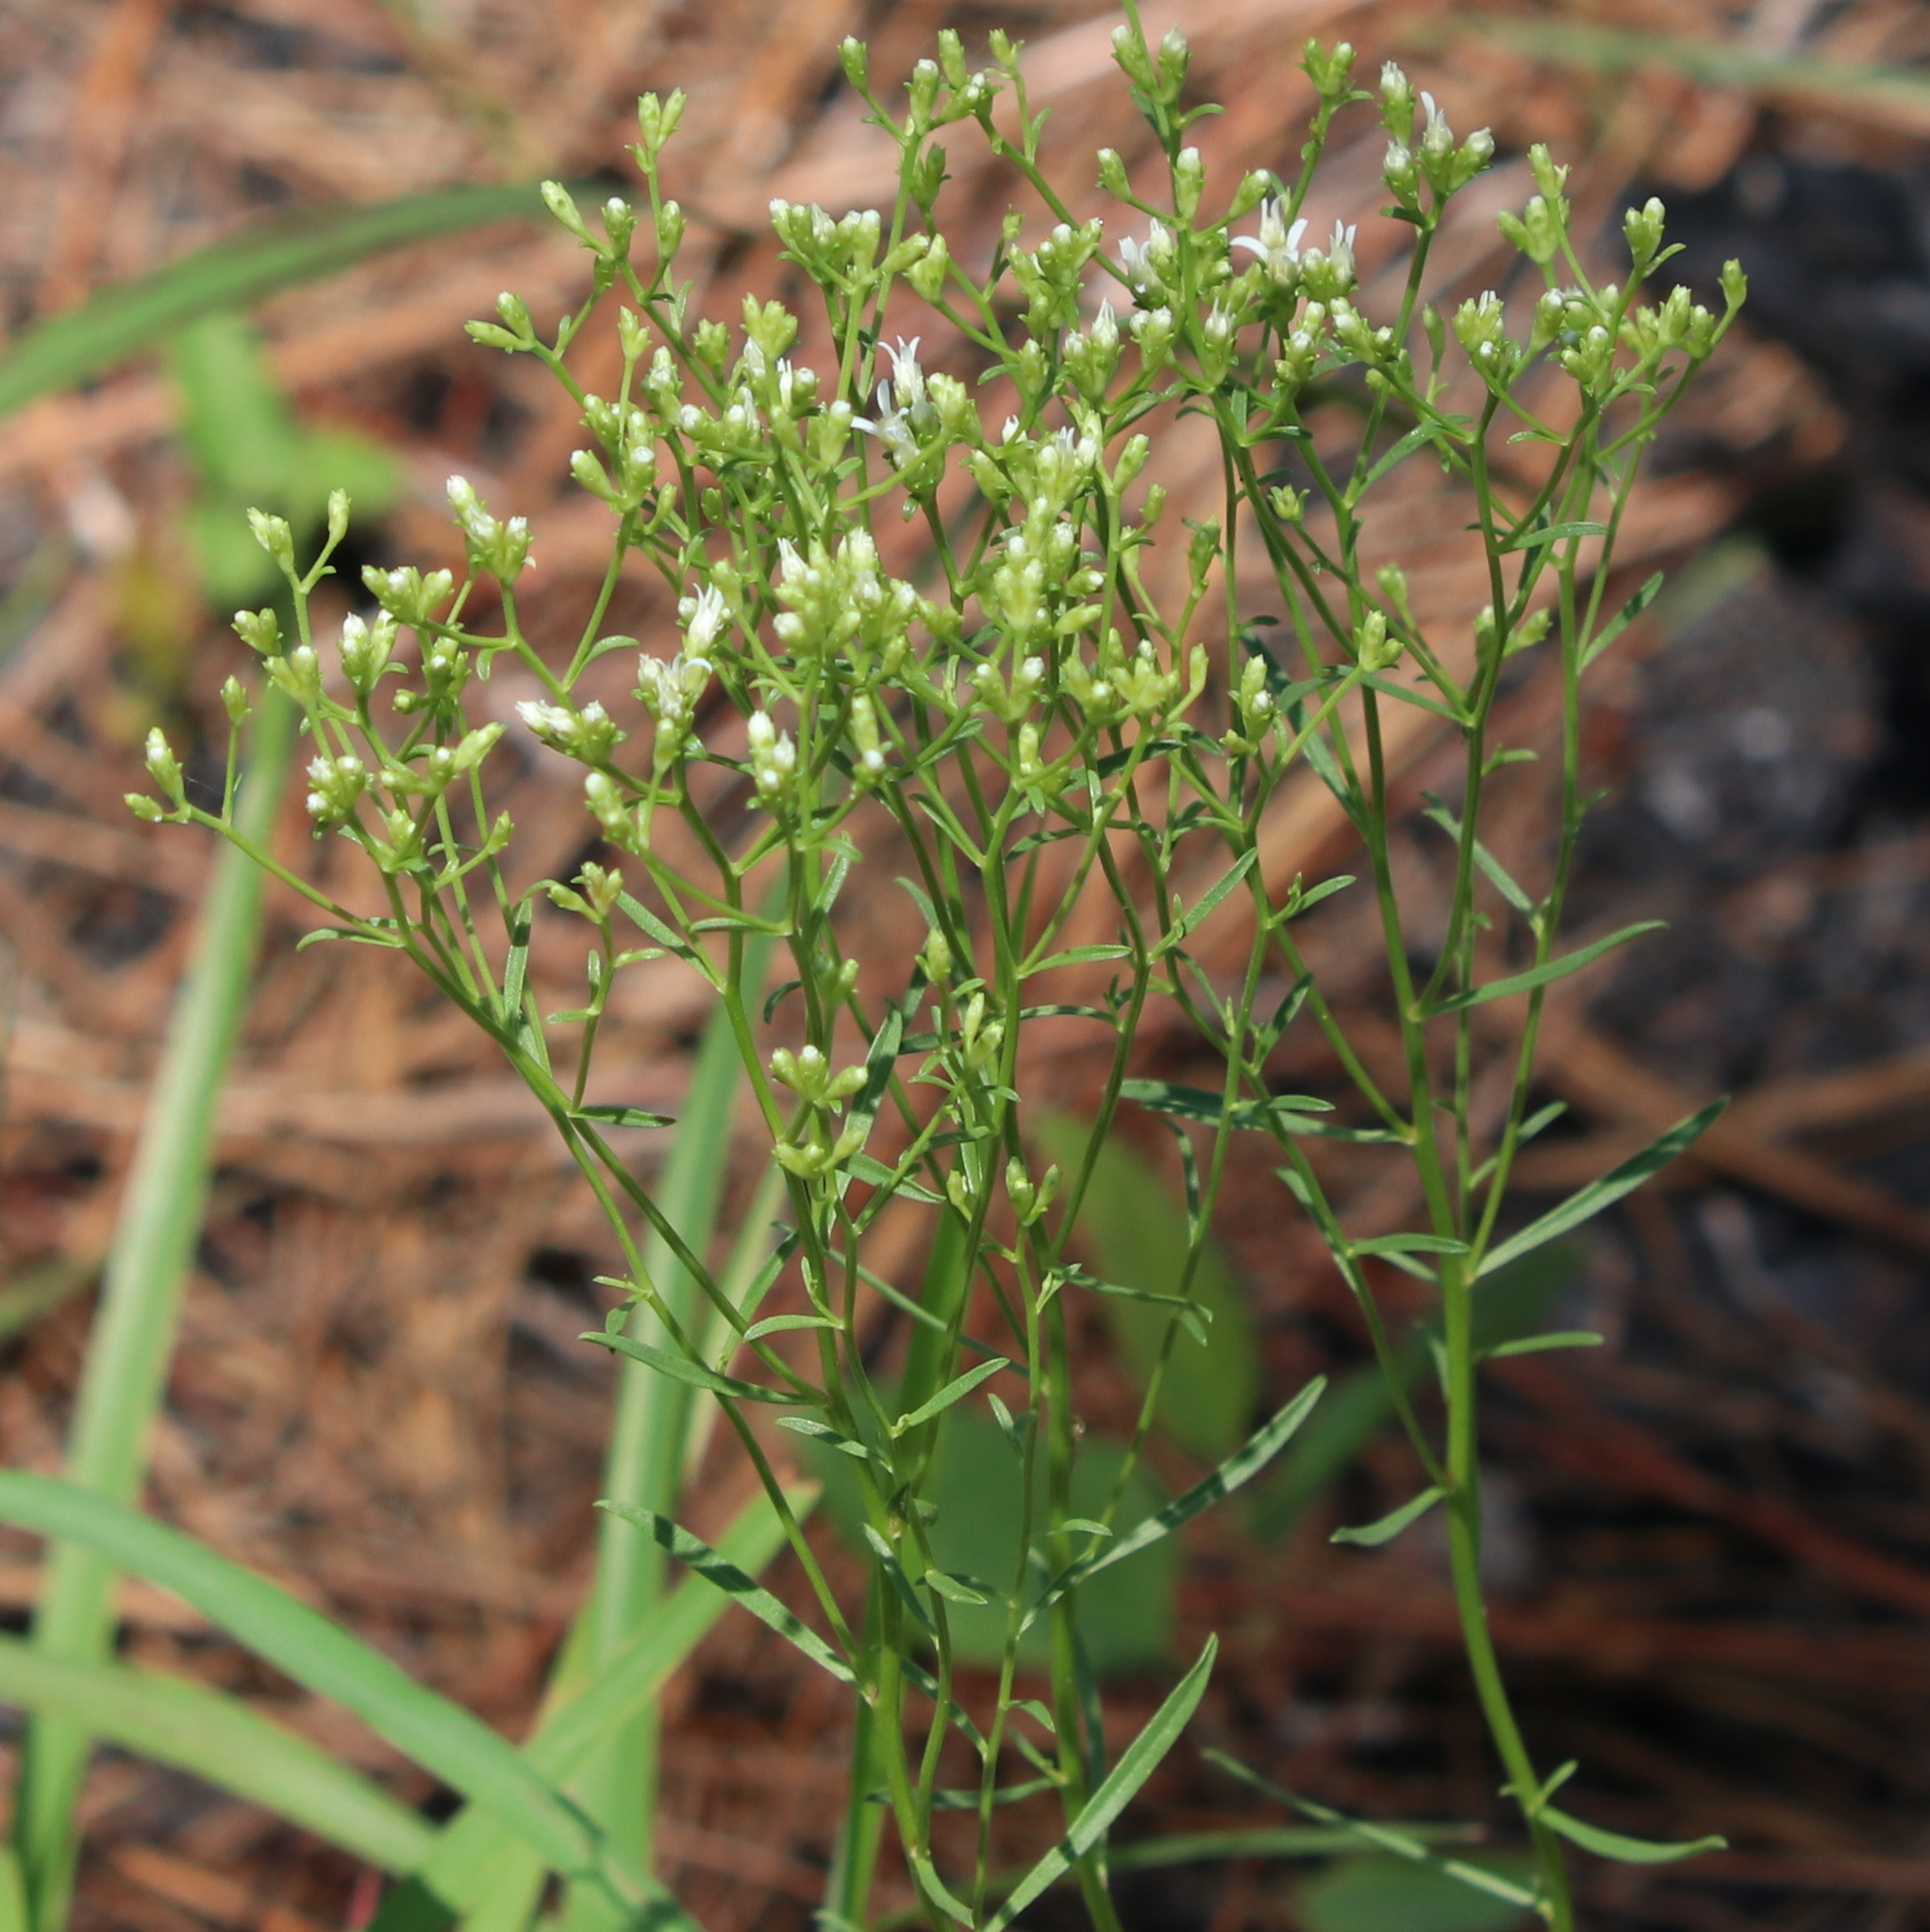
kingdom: Plantae
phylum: Tracheophyta
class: Magnoliopsida
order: Asterales
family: Asteraceae
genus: Sericocarpus
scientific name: Sericocarpus linifolius
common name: Narrow-leaf aster
